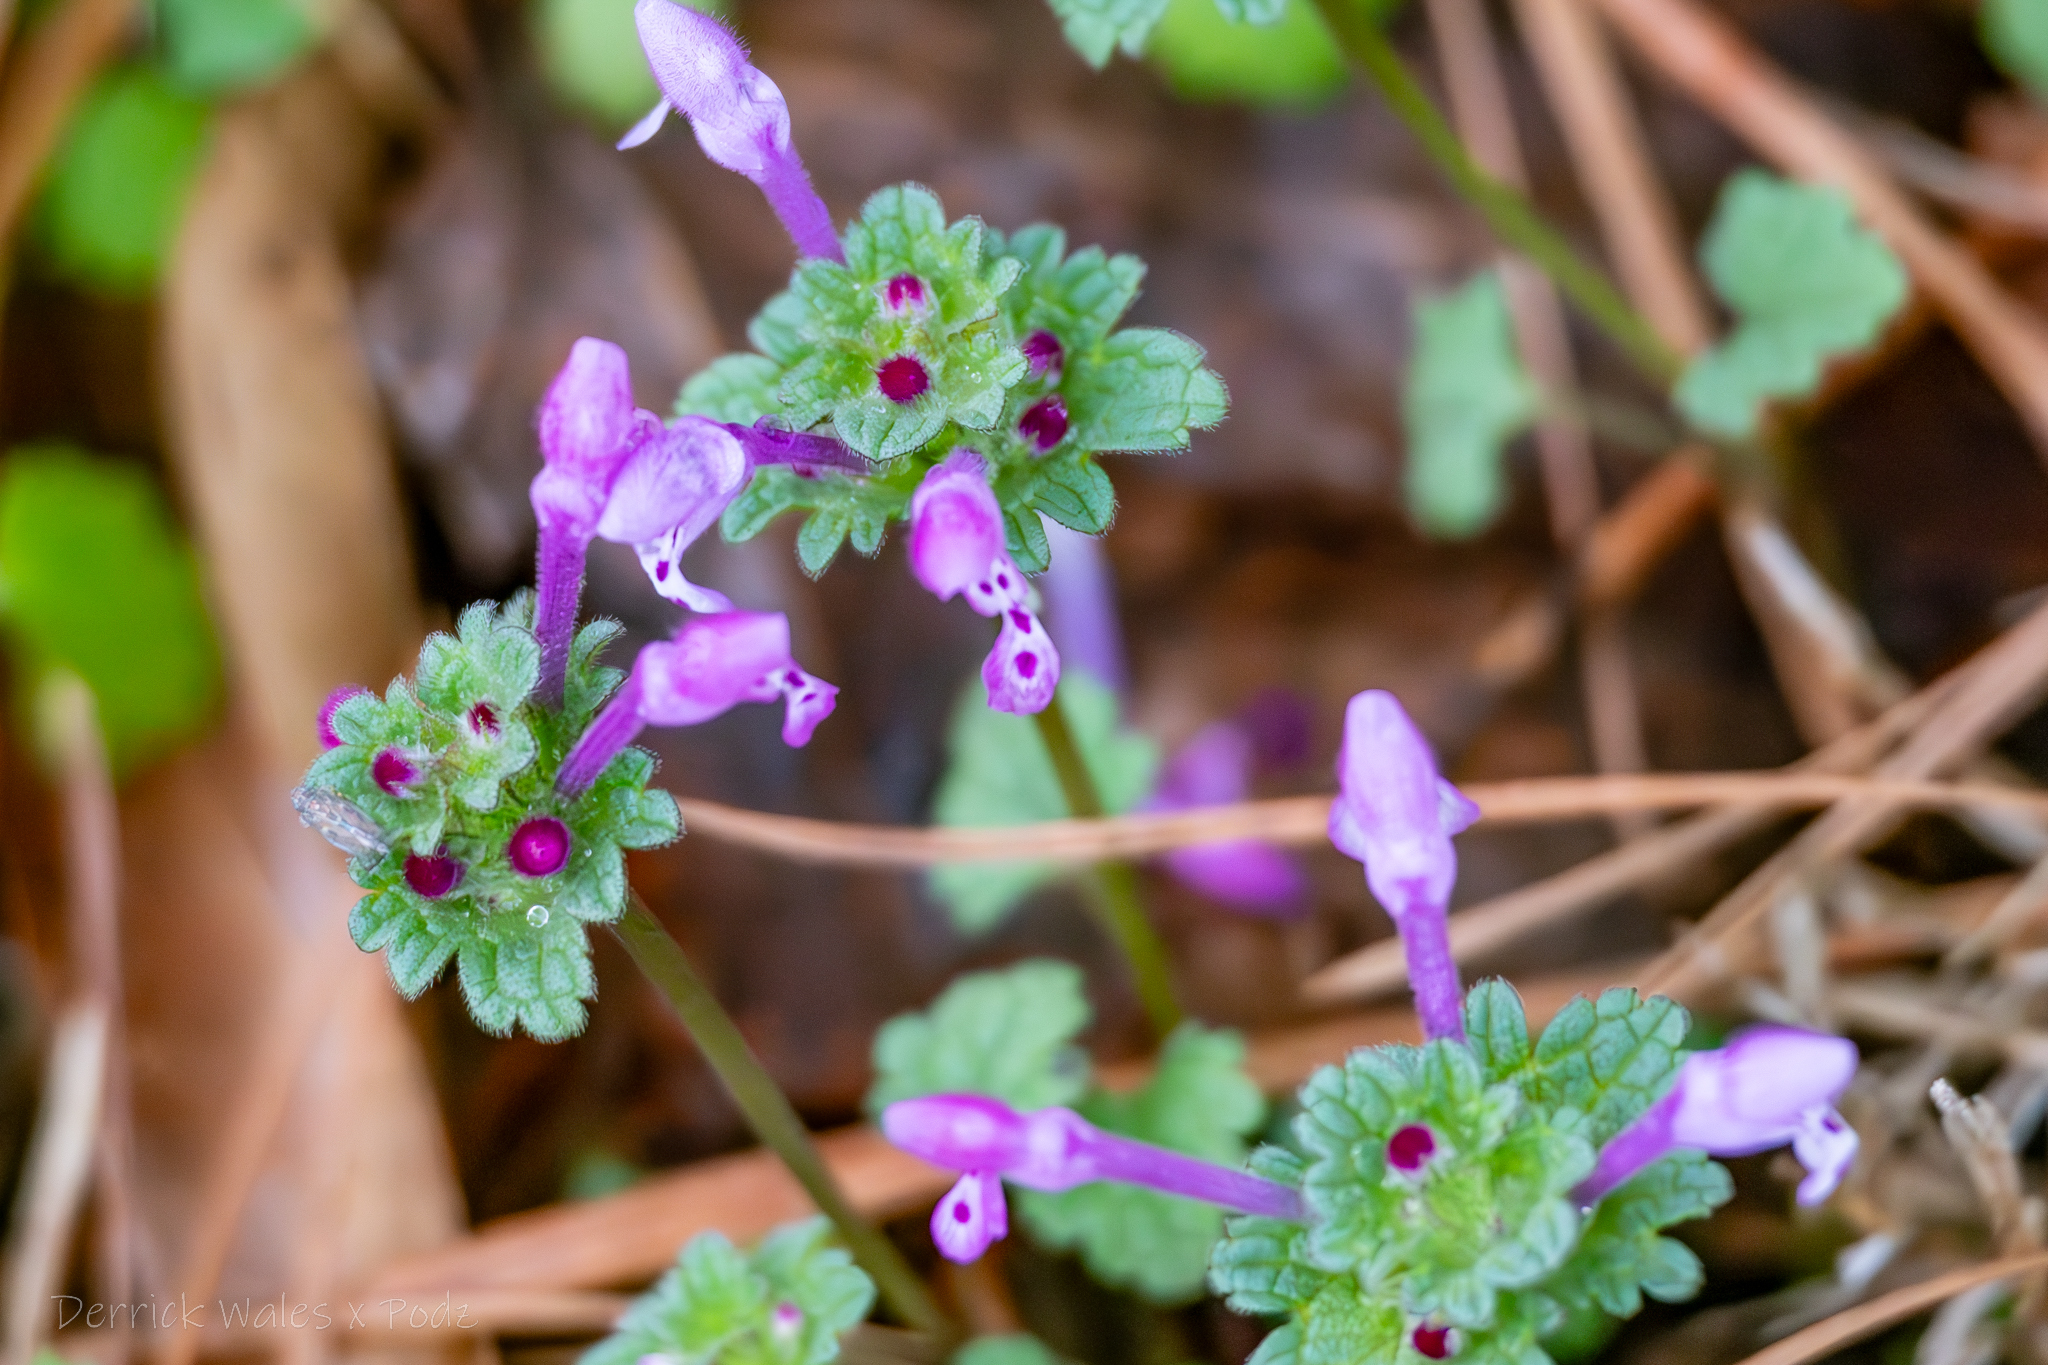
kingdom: Plantae
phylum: Tracheophyta
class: Magnoliopsida
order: Lamiales
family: Lamiaceae
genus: Lamium
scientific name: Lamium amplexicaule
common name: Henbit dead-nettle
